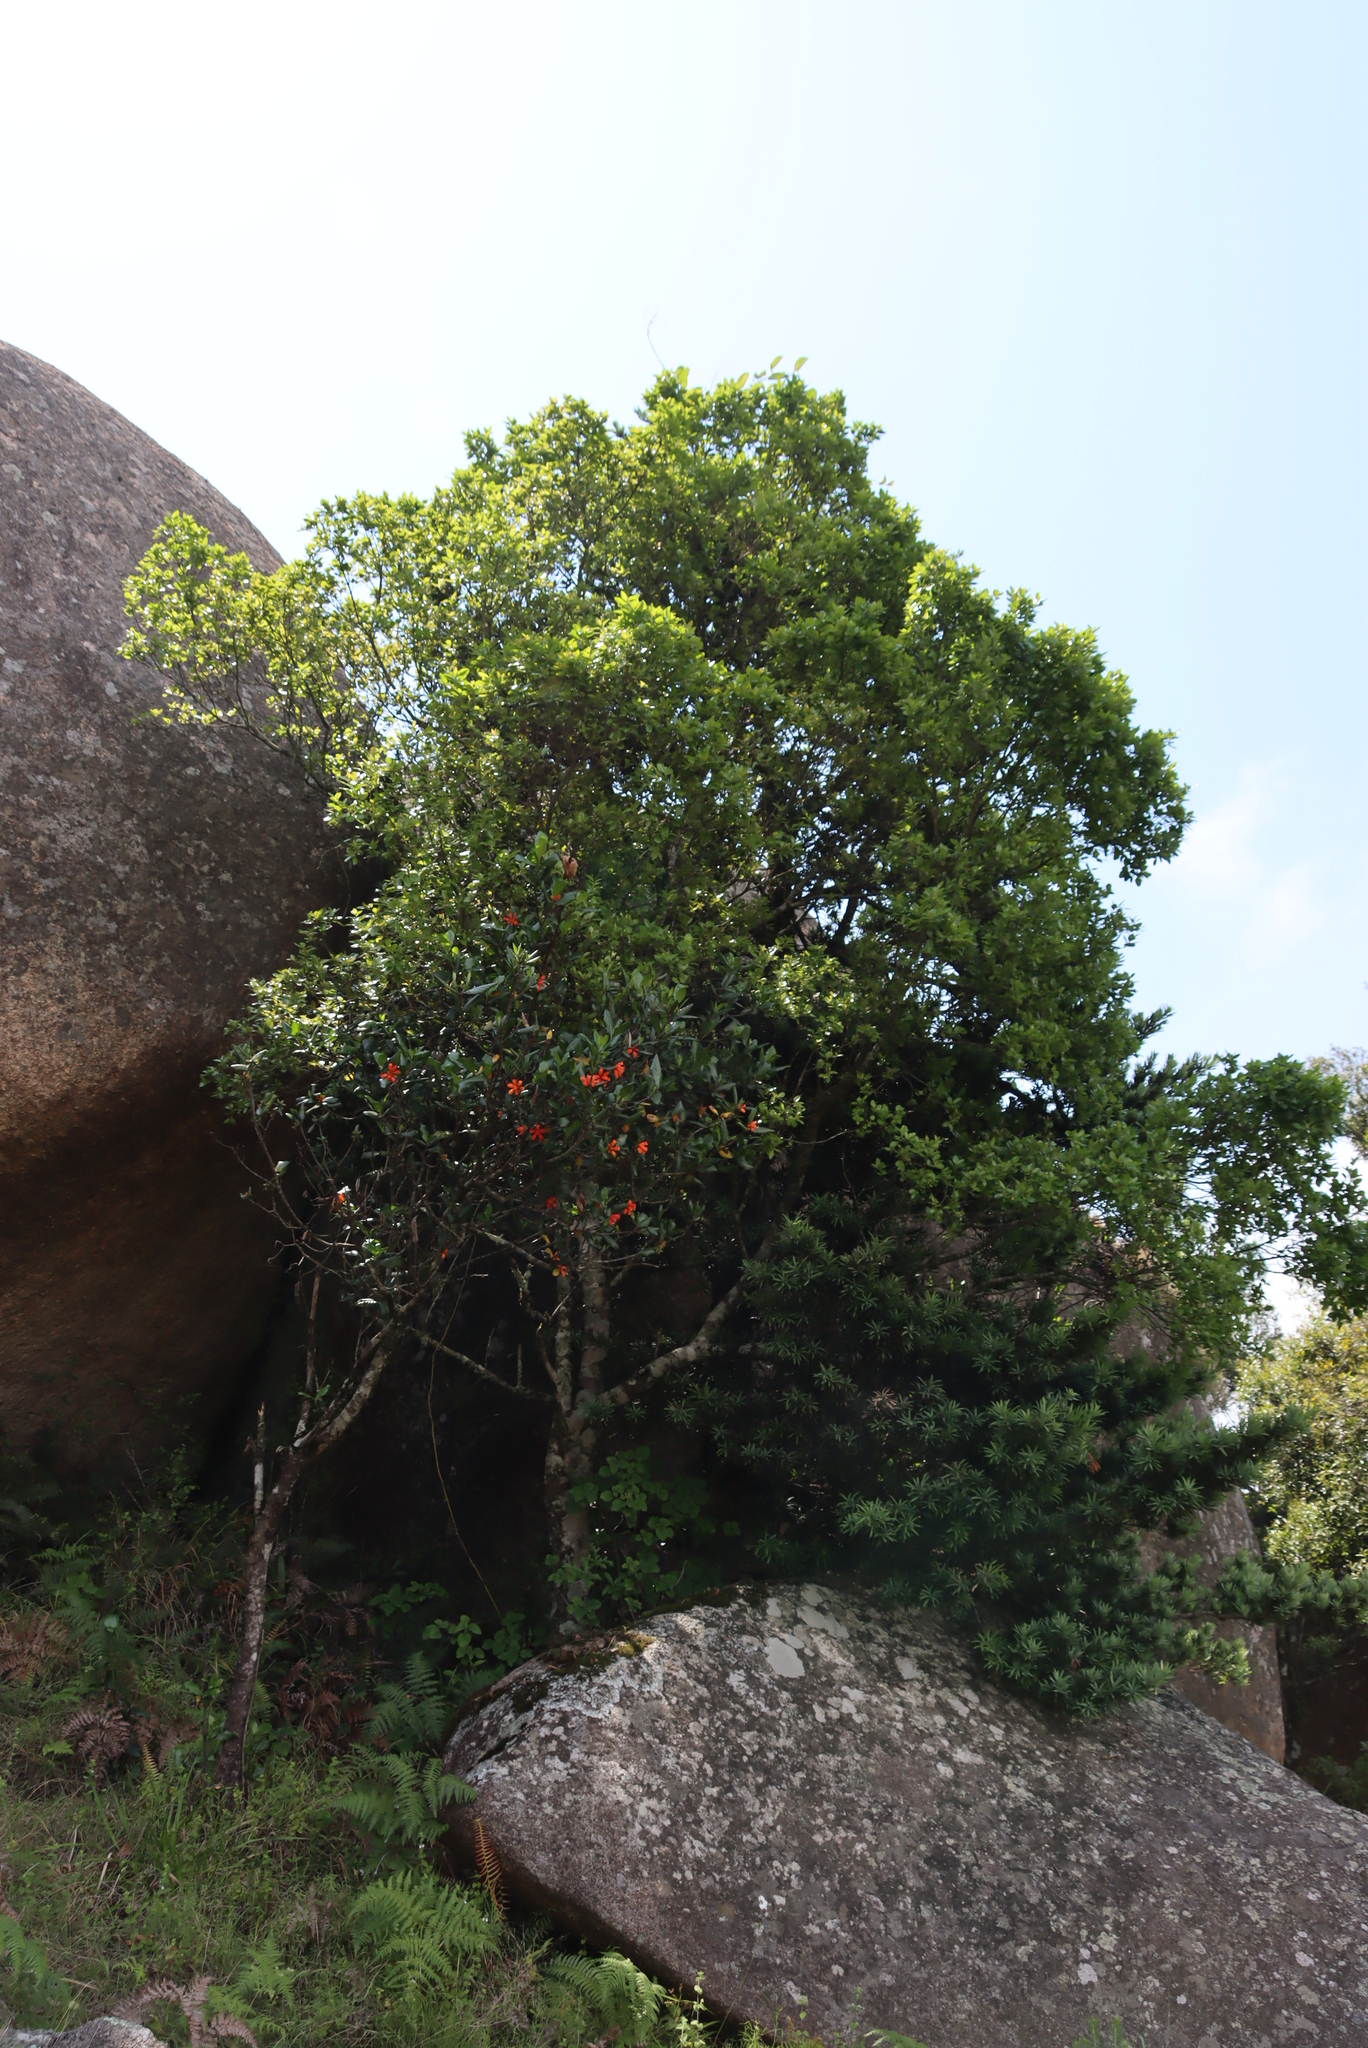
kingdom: Plantae
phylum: Tracheophyta
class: Magnoliopsida
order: Gentianales
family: Rubiaceae
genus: Burchellia
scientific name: Burchellia bubalina
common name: Wild pomegranate
